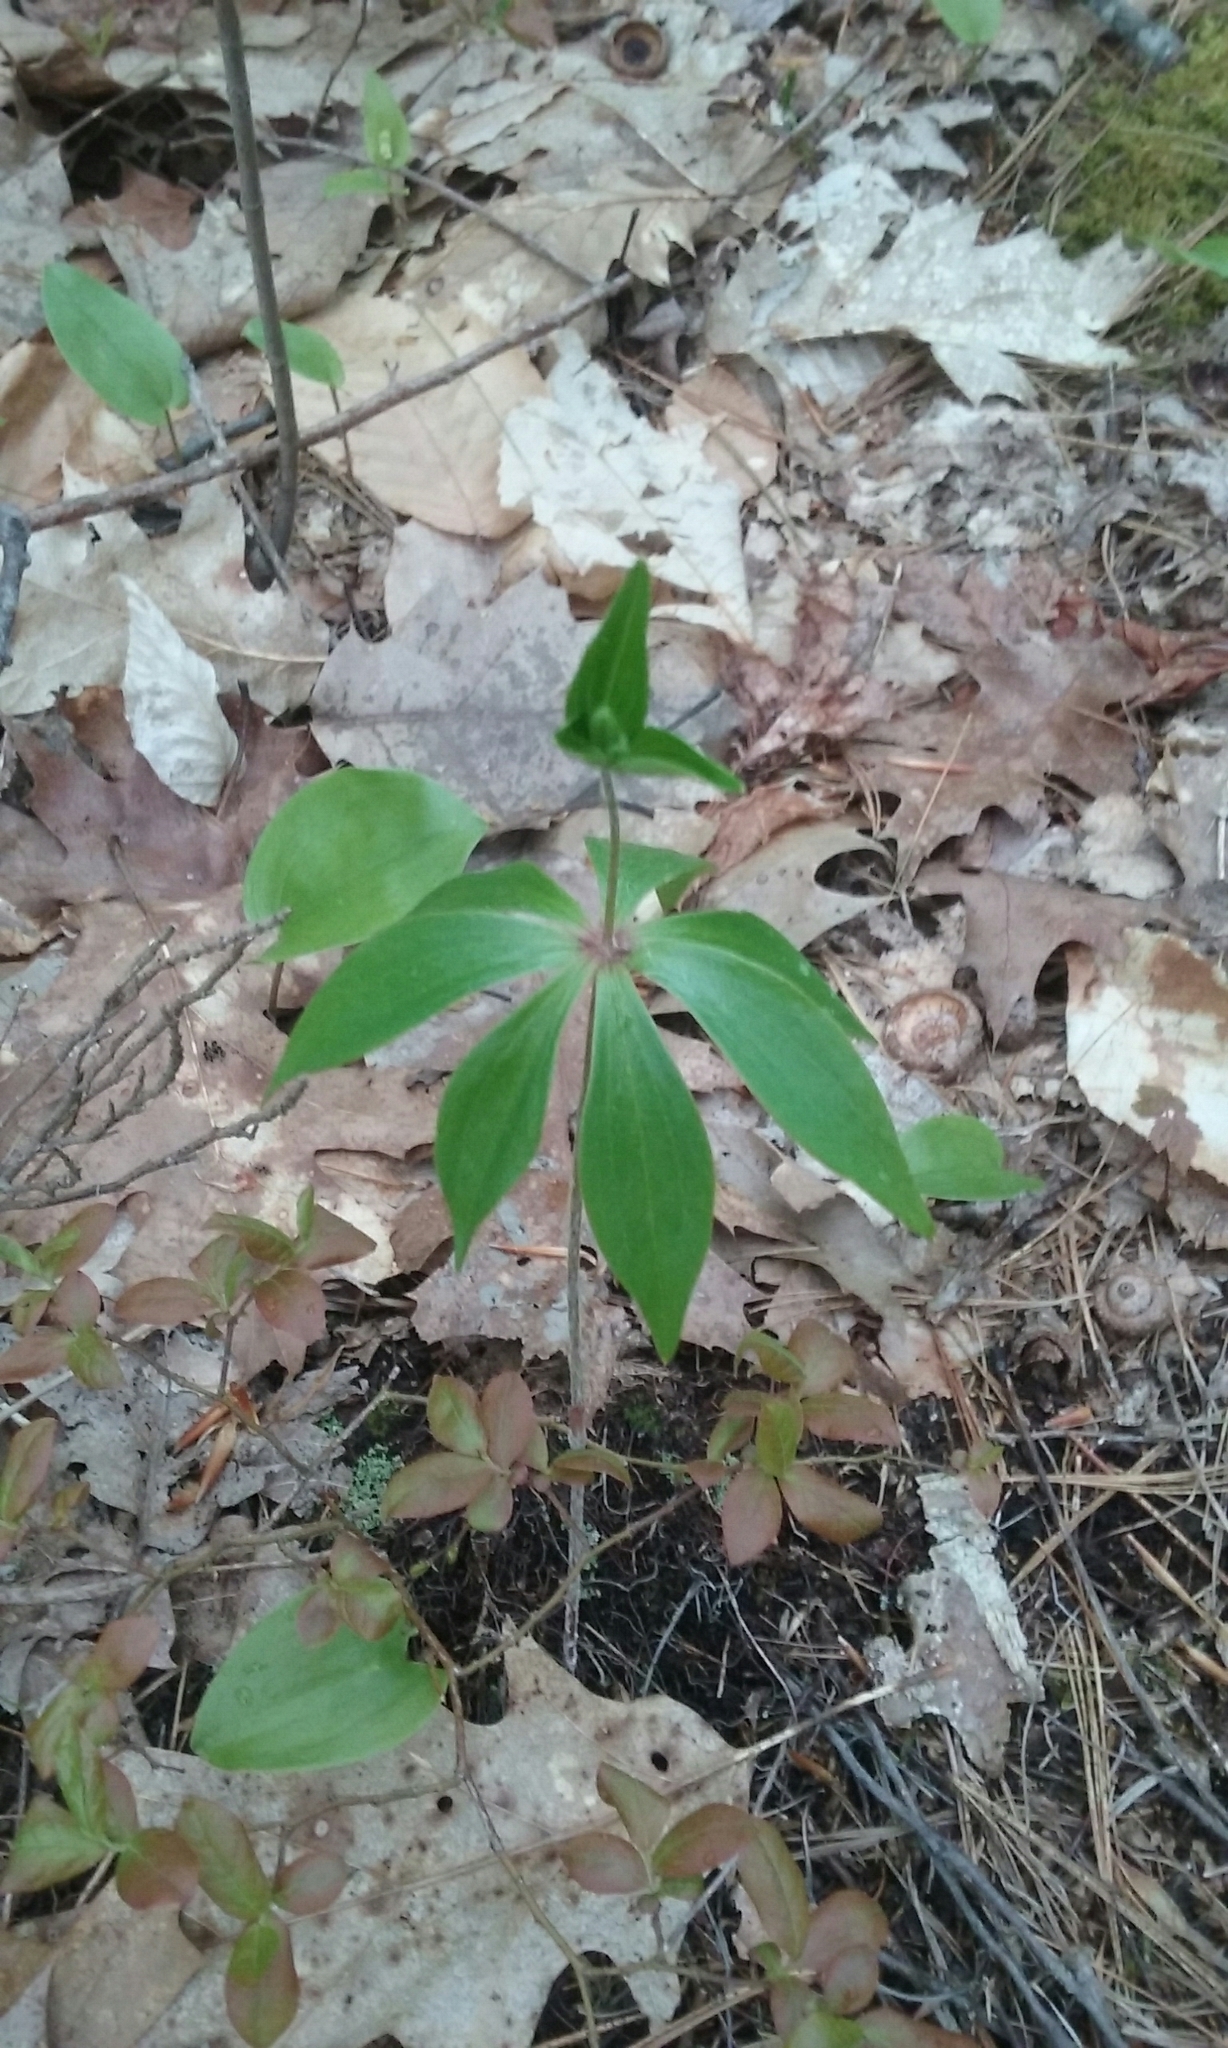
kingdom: Plantae
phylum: Tracheophyta
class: Liliopsida
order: Liliales
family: Liliaceae
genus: Medeola
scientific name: Medeola virginiana
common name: Indian cucumber-root
